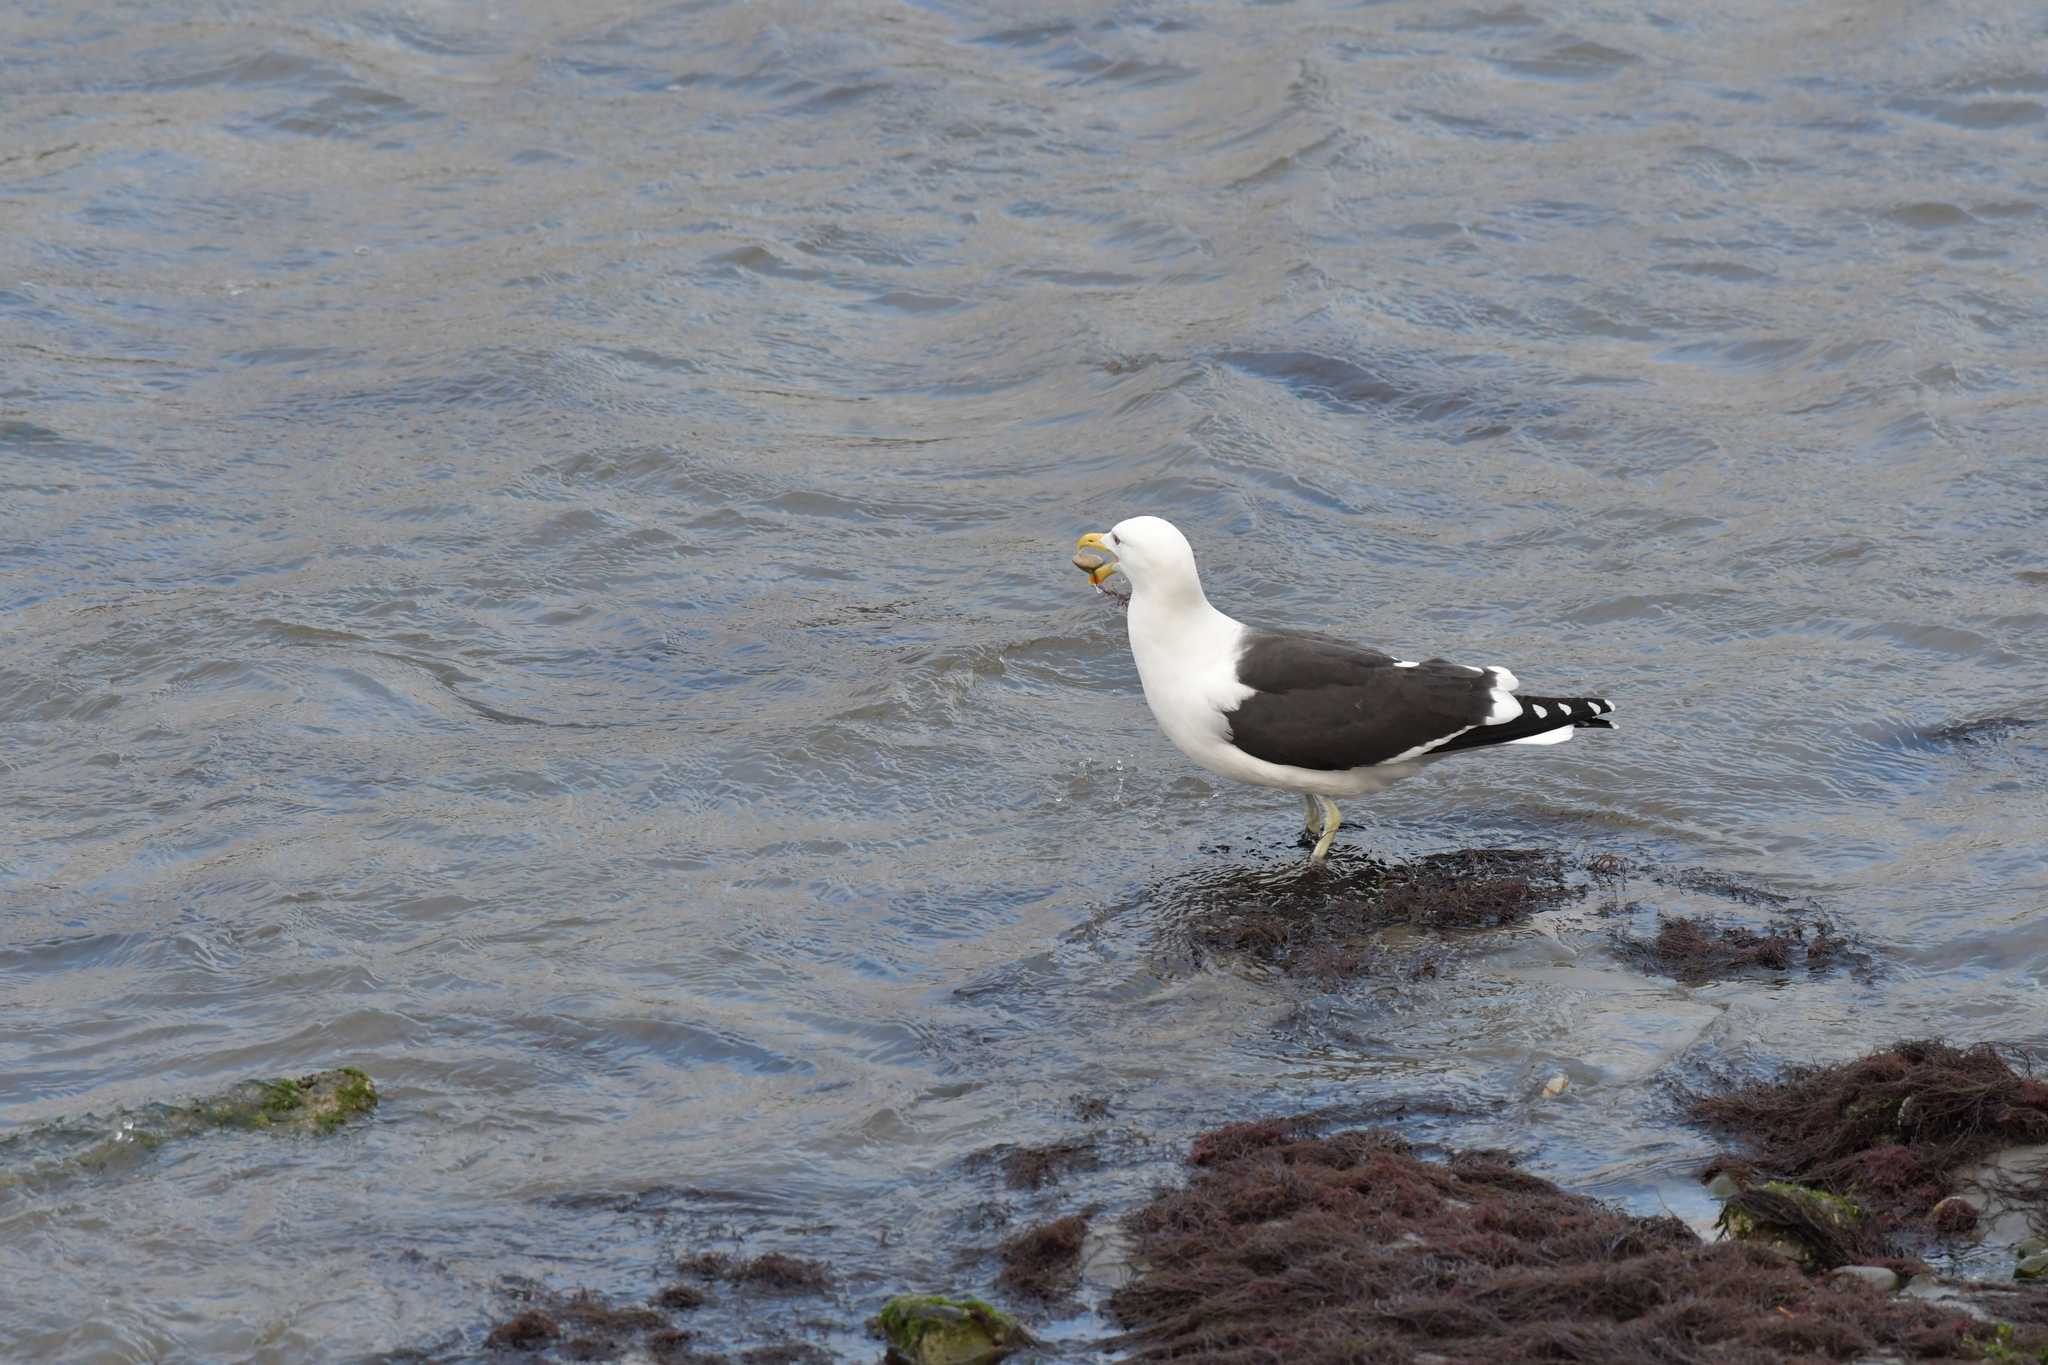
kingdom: Animalia
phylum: Chordata
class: Aves
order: Charadriiformes
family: Laridae
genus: Larus
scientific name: Larus dominicanus
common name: Kelp gull
